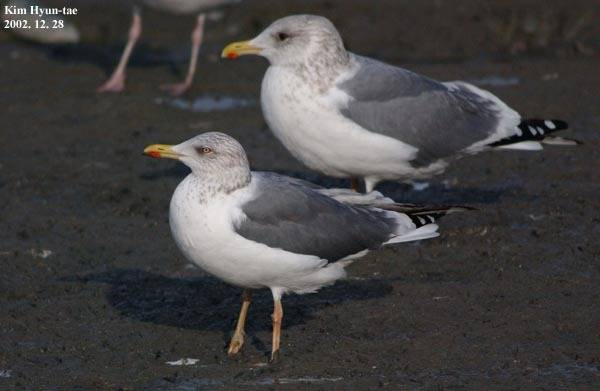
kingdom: Animalia
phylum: Chordata
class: Aves
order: Charadriiformes
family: Laridae
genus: Larus
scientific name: Larus fuscus
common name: Lesser black-backed gull
